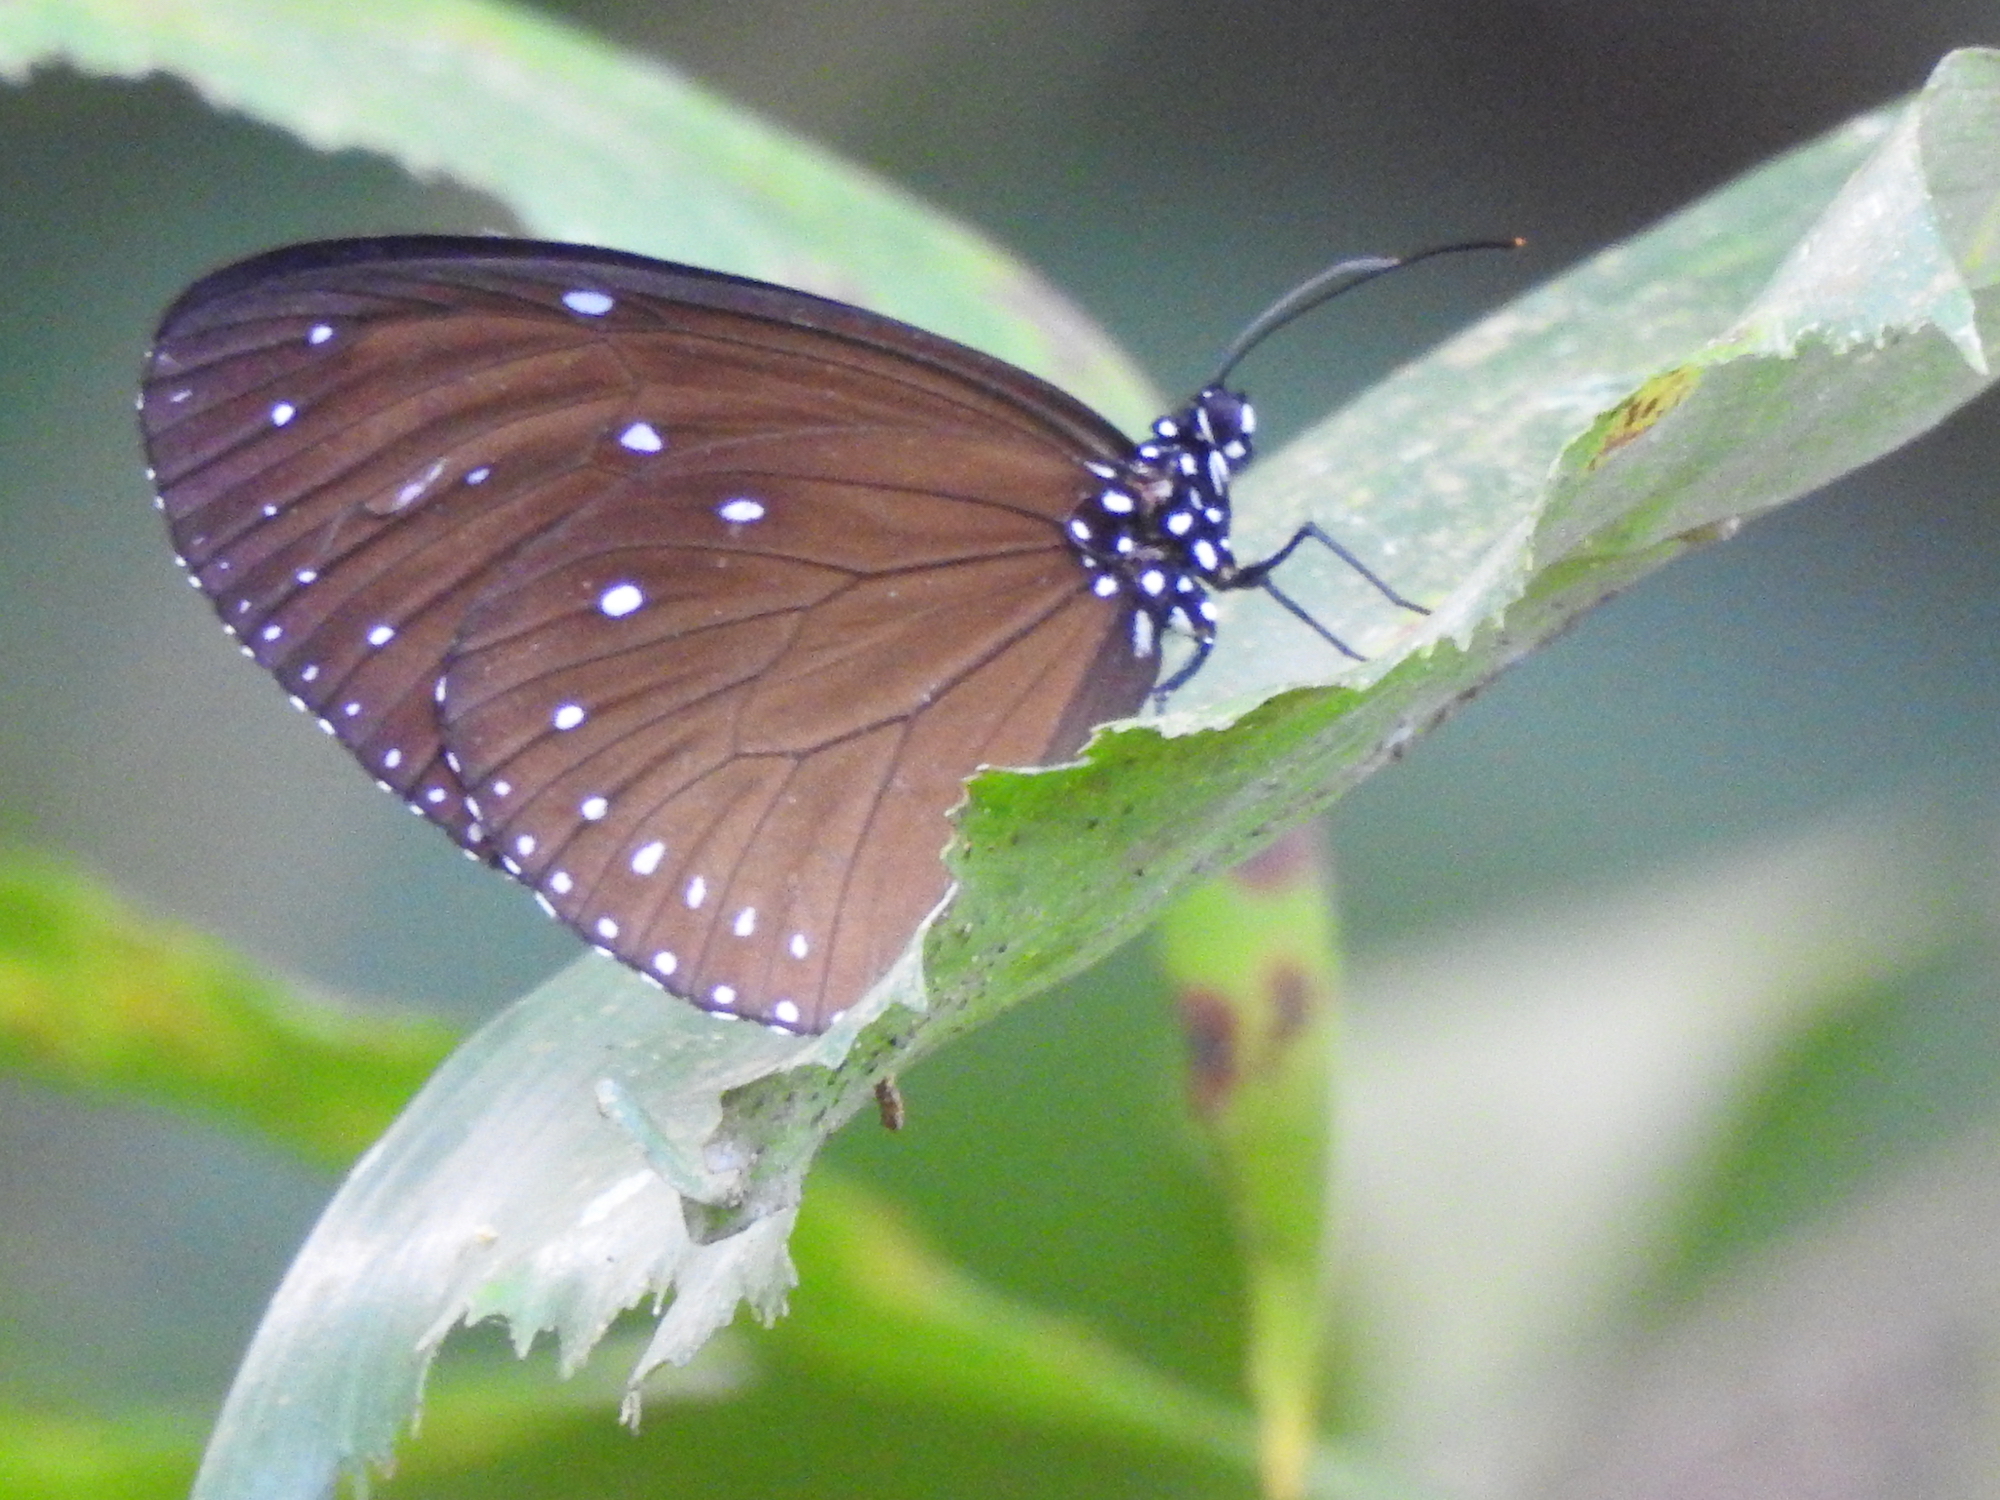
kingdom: Animalia
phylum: Arthropoda
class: Insecta
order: Lepidoptera
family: Nymphalidae
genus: Euploea
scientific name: Euploea mulciber
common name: Striped blue crow butterfly
